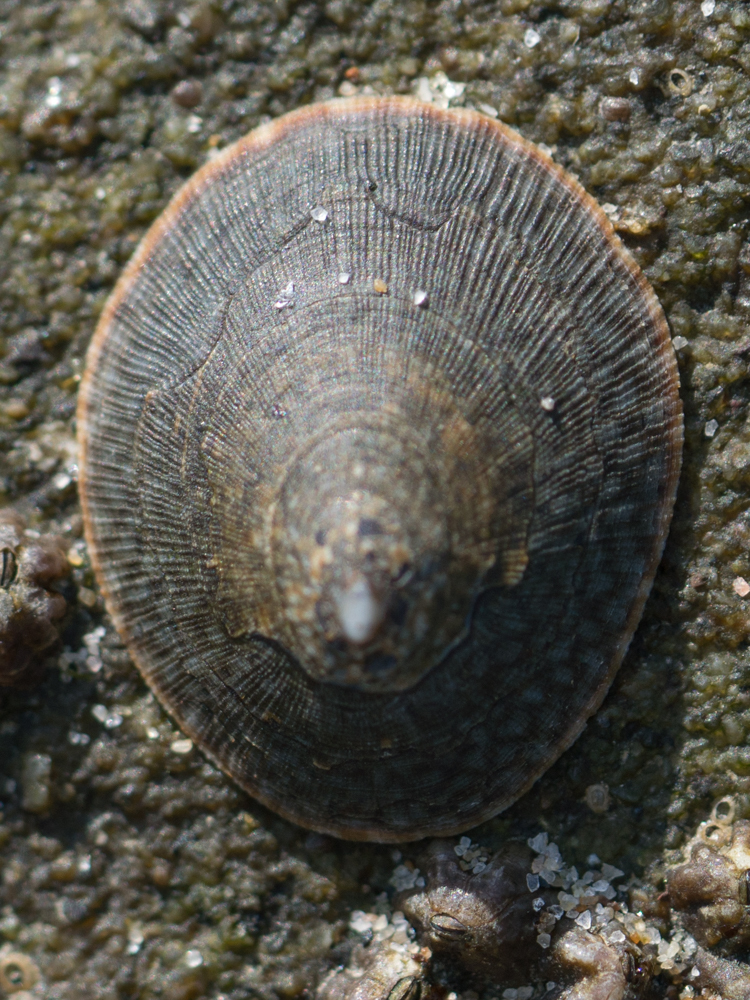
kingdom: Animalia
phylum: Mollusca
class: Gastropoda
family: Lottiidae
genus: Lottia
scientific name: Lottia limatula
